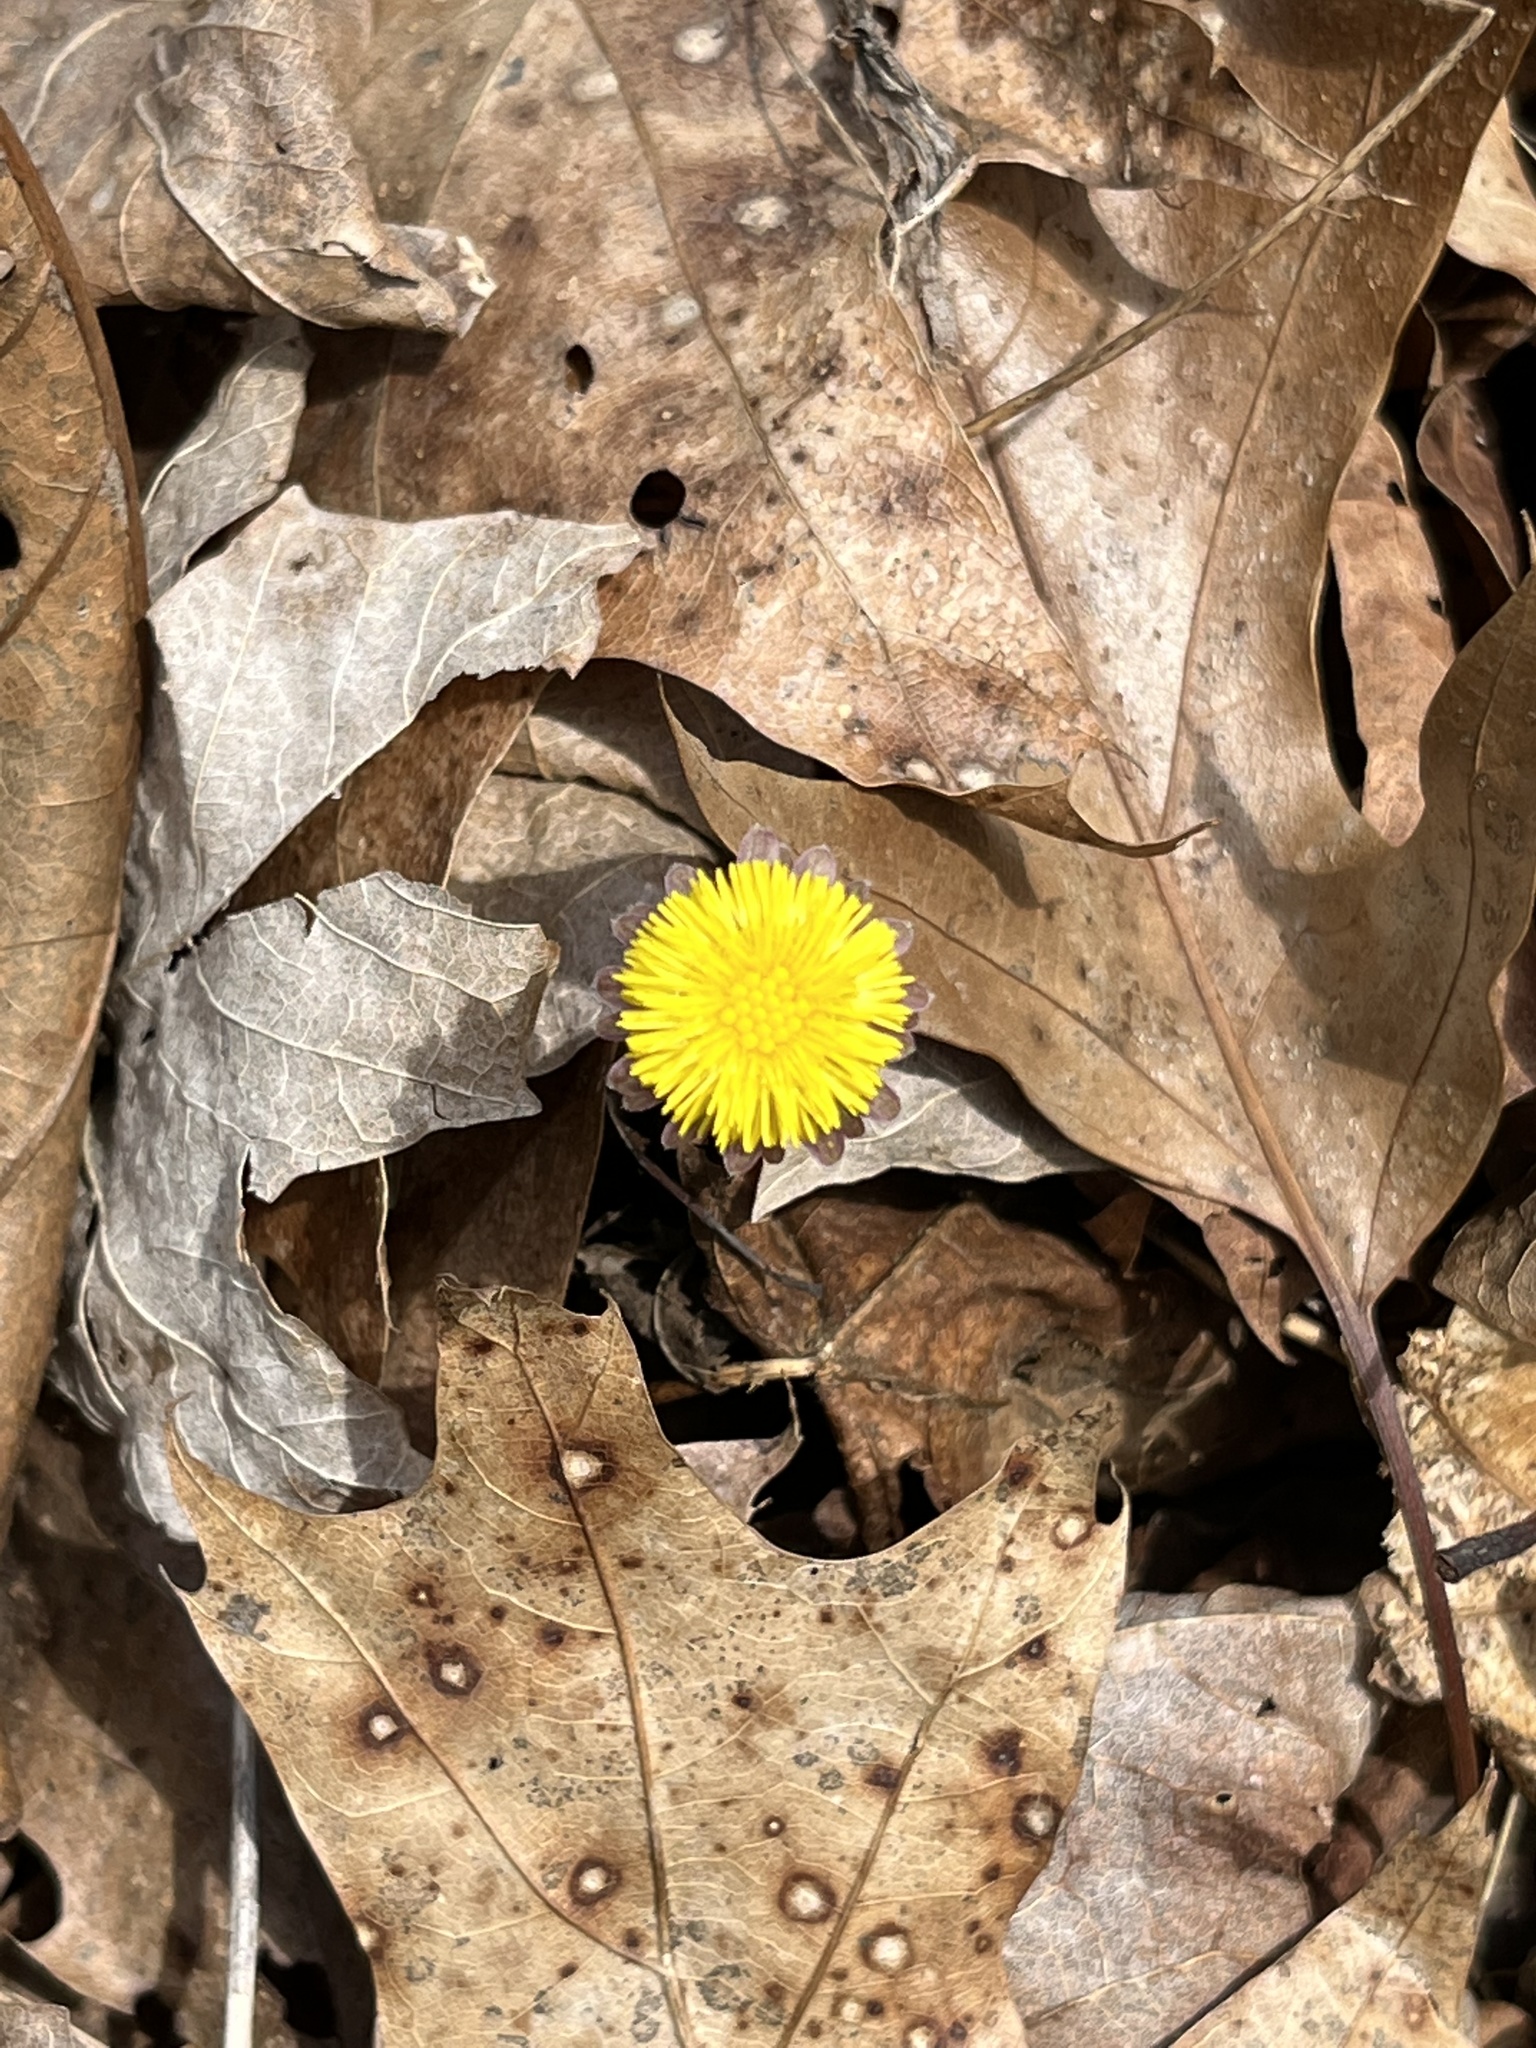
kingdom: Plantae
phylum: Tracheophyta
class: Magnoliopsida
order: Asterales
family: Asteraceae
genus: Tussilago
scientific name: Tussilago farfara
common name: Coltsfoot
